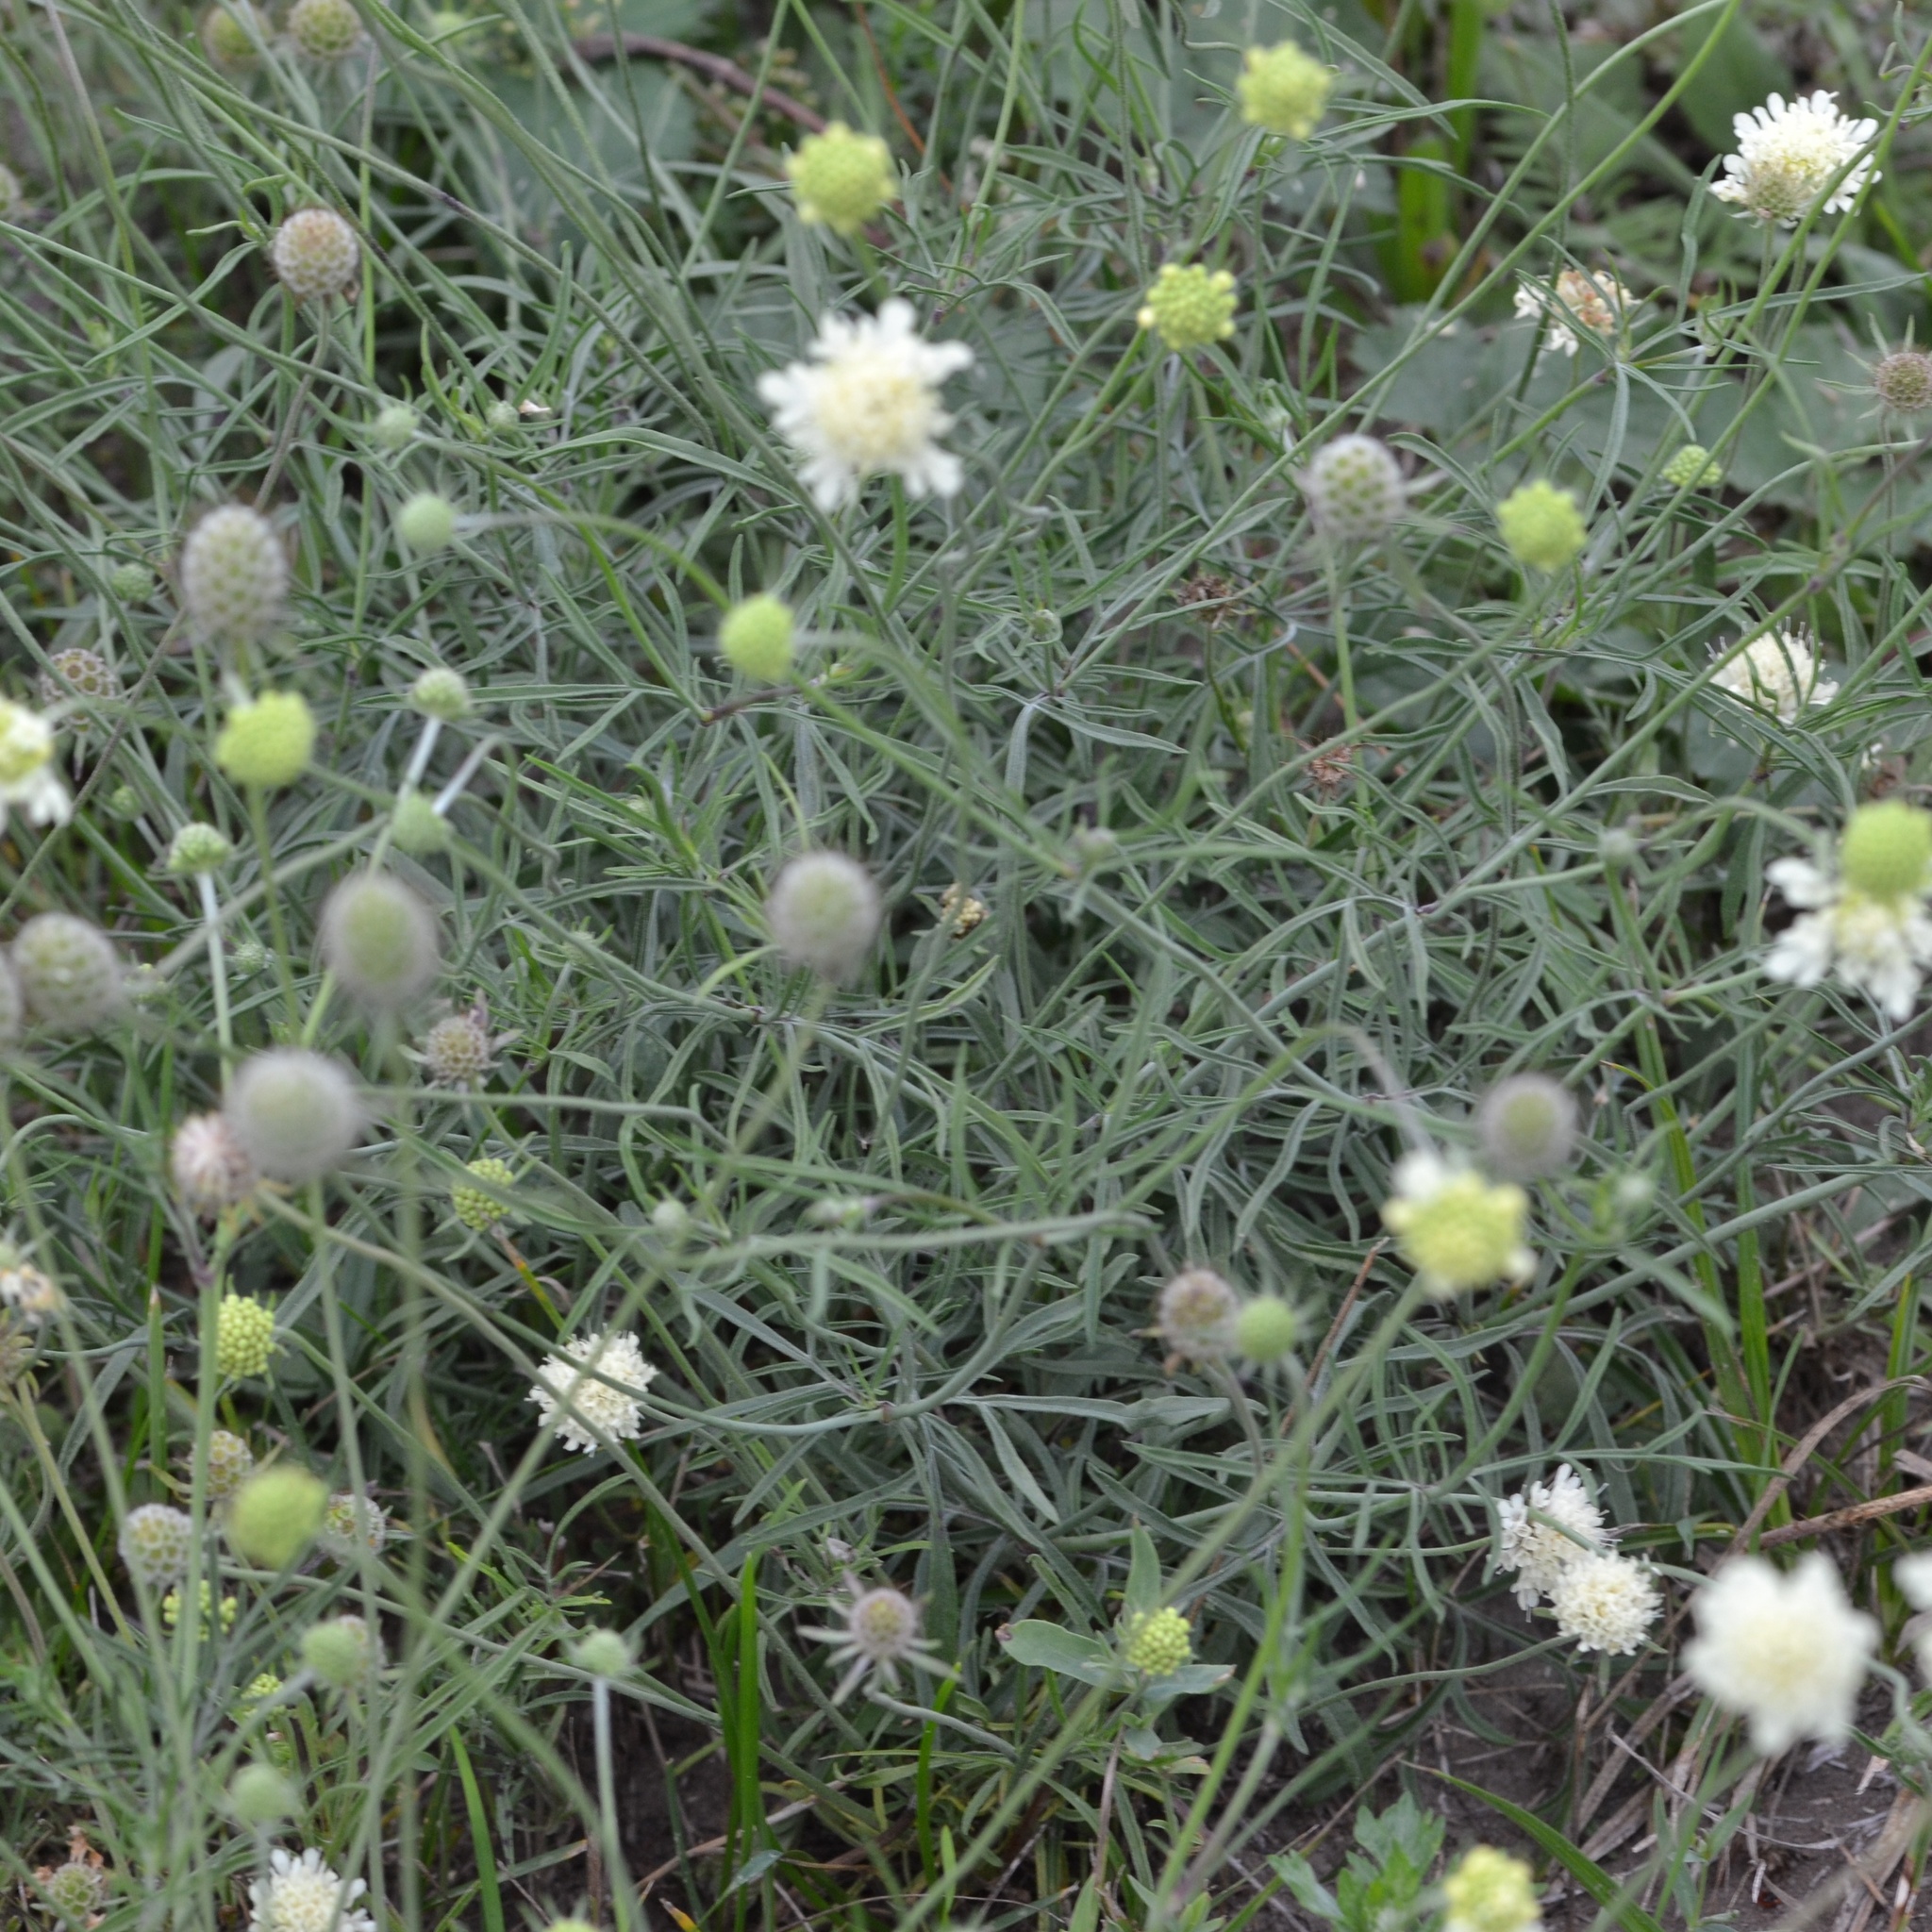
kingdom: Plantae
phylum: Tracheophyta
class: Magnoliopsida
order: Dipsacales
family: Caprifoliaceae
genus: Scabiosa
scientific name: Scabiosa ochroleuca
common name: Cream pincushions
